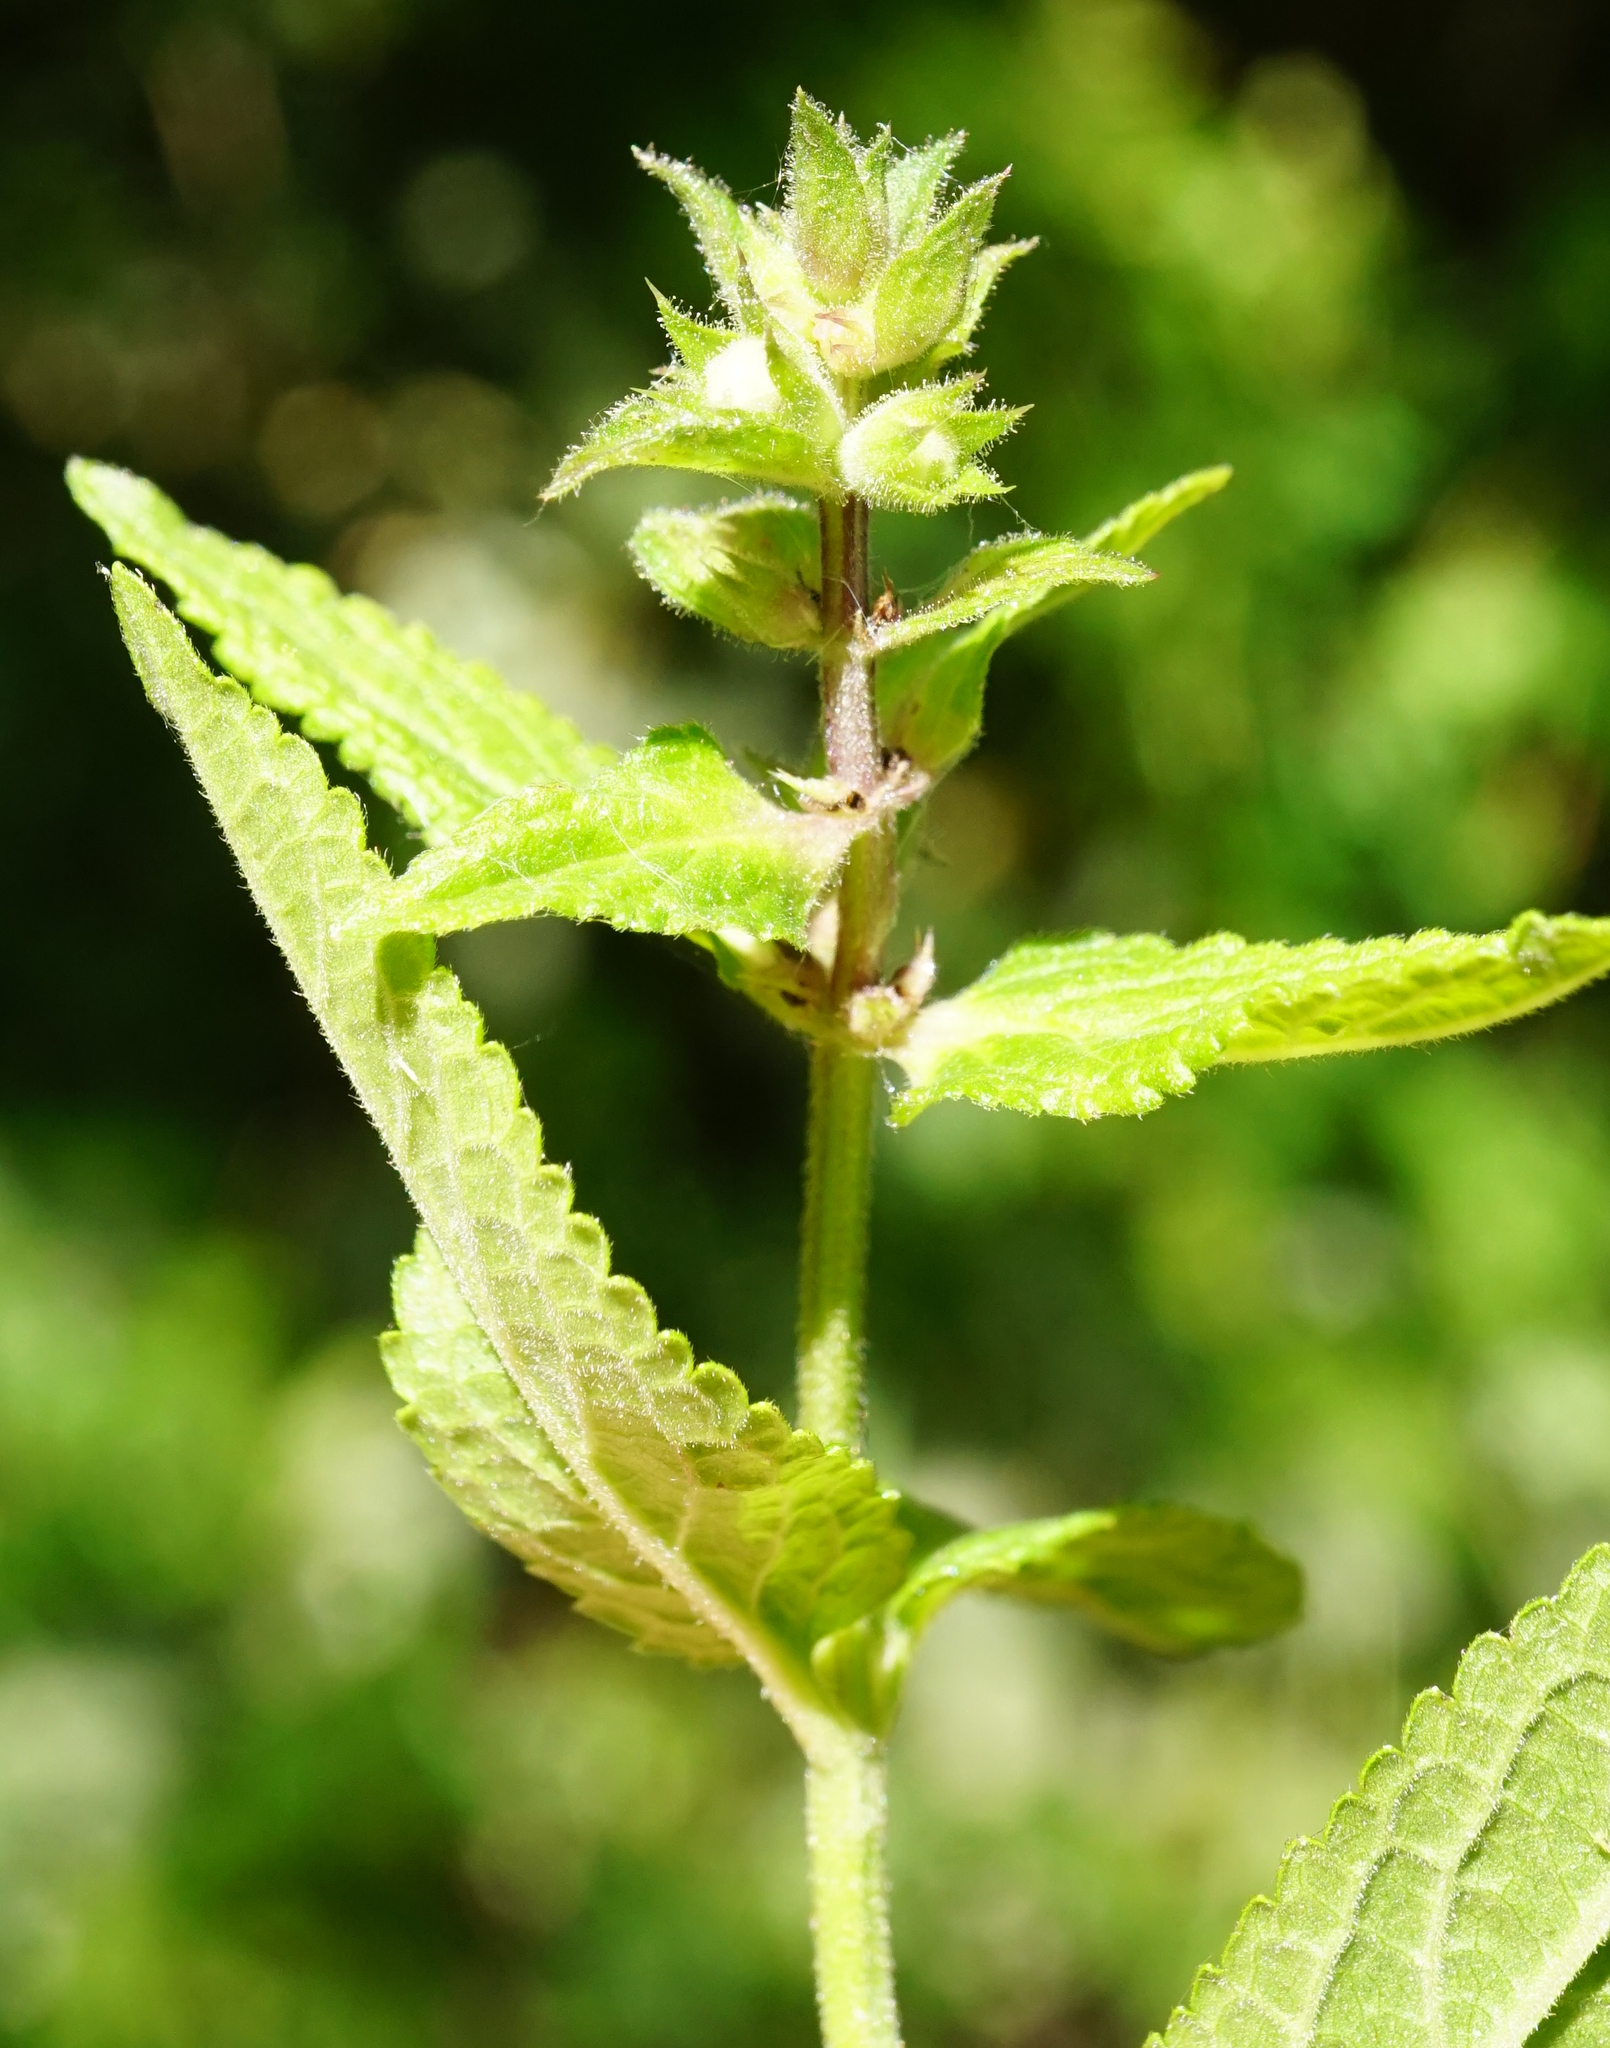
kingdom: Plantae
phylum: Tracheophyta
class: Magnoliopsida
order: Lamiales
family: Lamiaceae
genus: Stachys
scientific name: Stachys palustris
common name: Marsh woundwort
